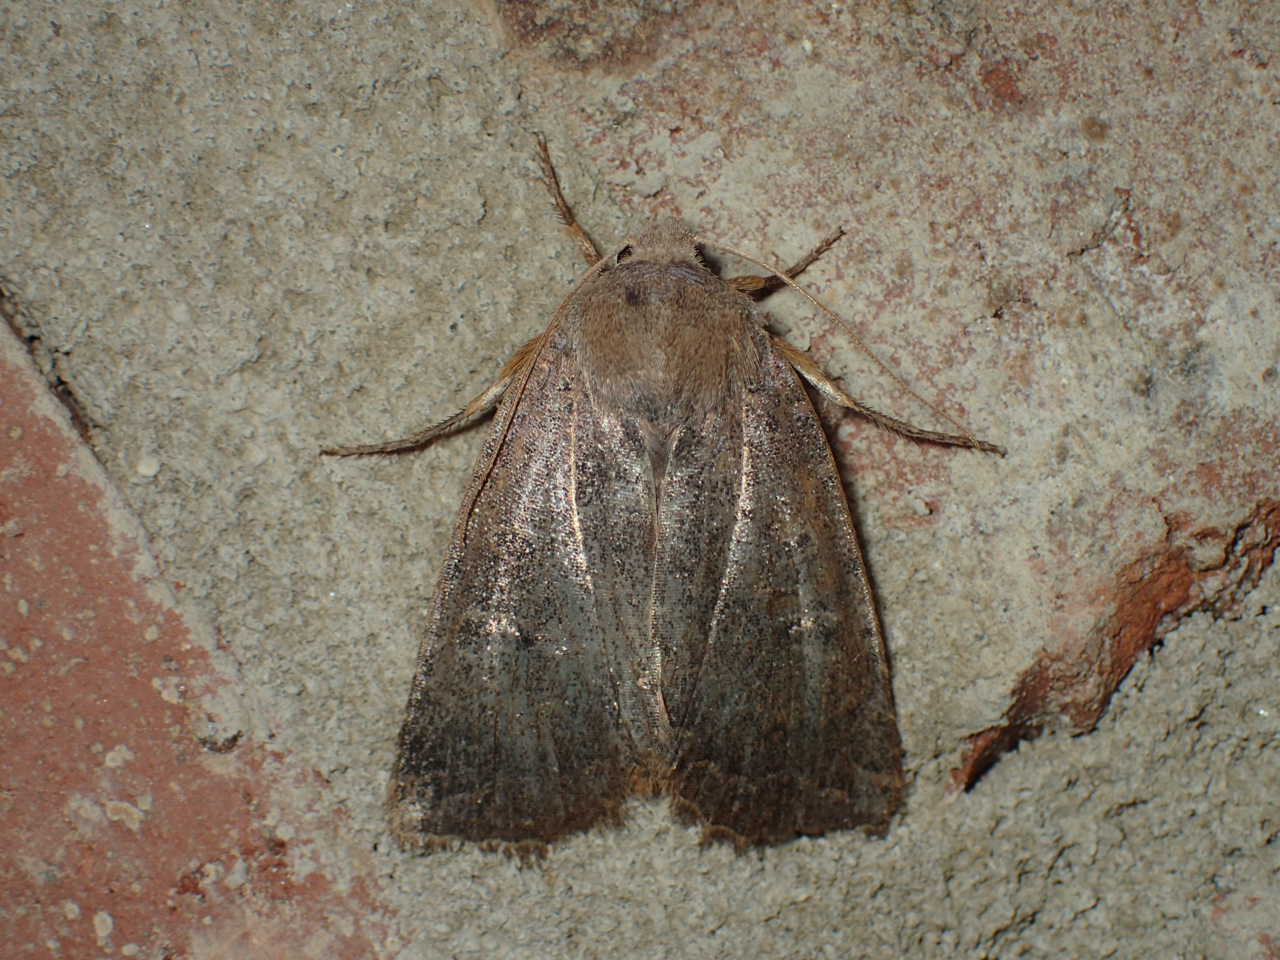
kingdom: Animalia
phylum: Arthropoda
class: Insecta
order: Lepidoptera
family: Noctuidae
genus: Athetis
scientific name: Athetis tarda
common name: Slowpoke moth
